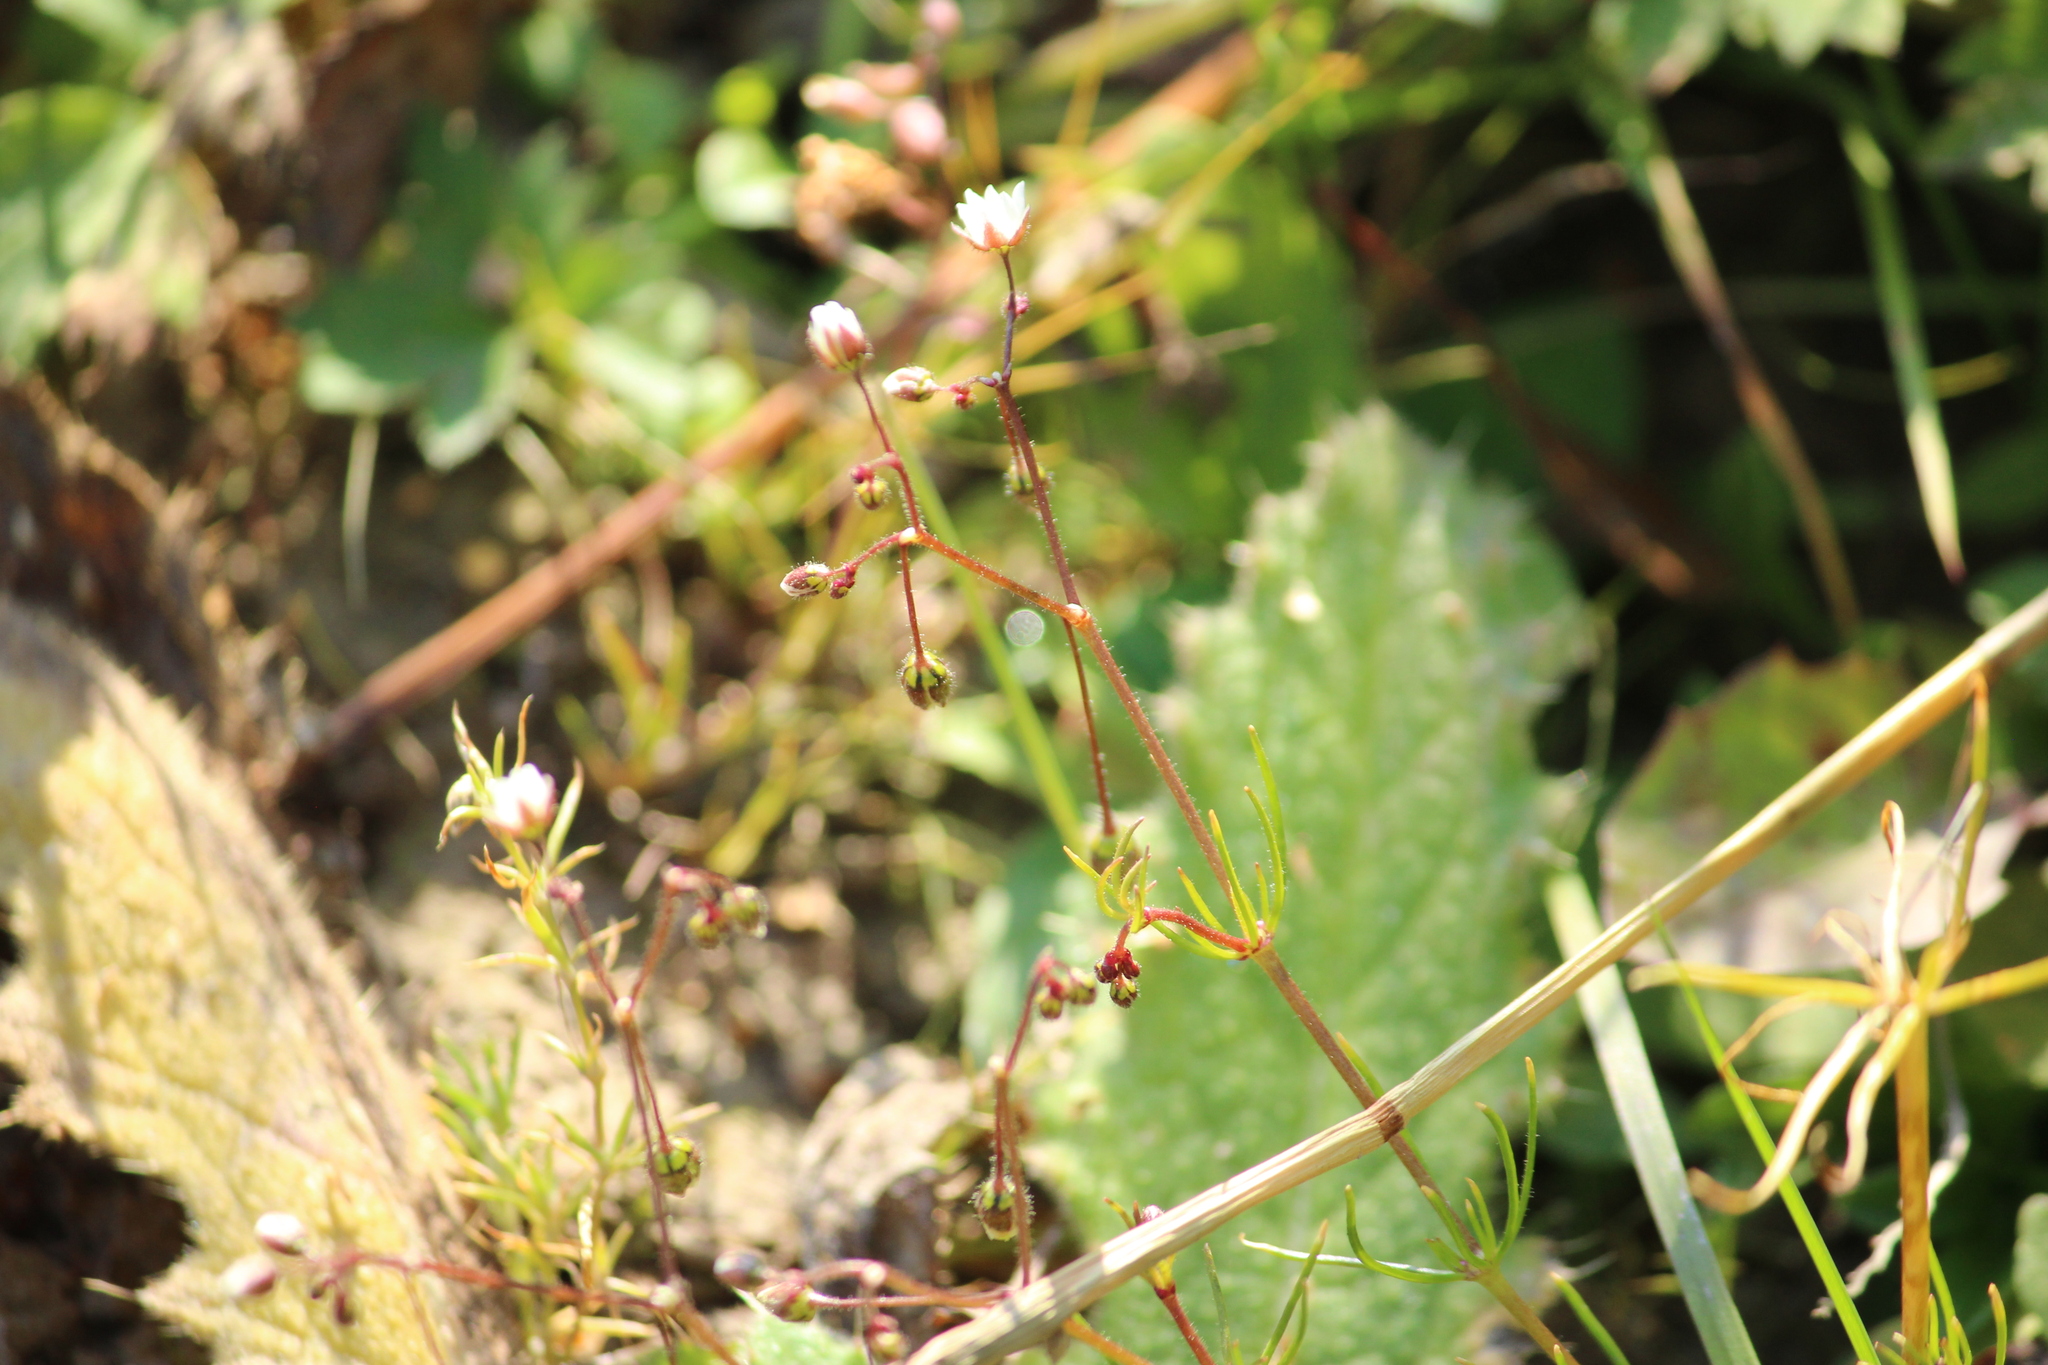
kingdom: Plantae
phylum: Tracheophyta
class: Magnoliopsida
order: Caryophyllales
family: Caryophyllaceae
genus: Spergula
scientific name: Spergula arvensis
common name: Corn spurrey
